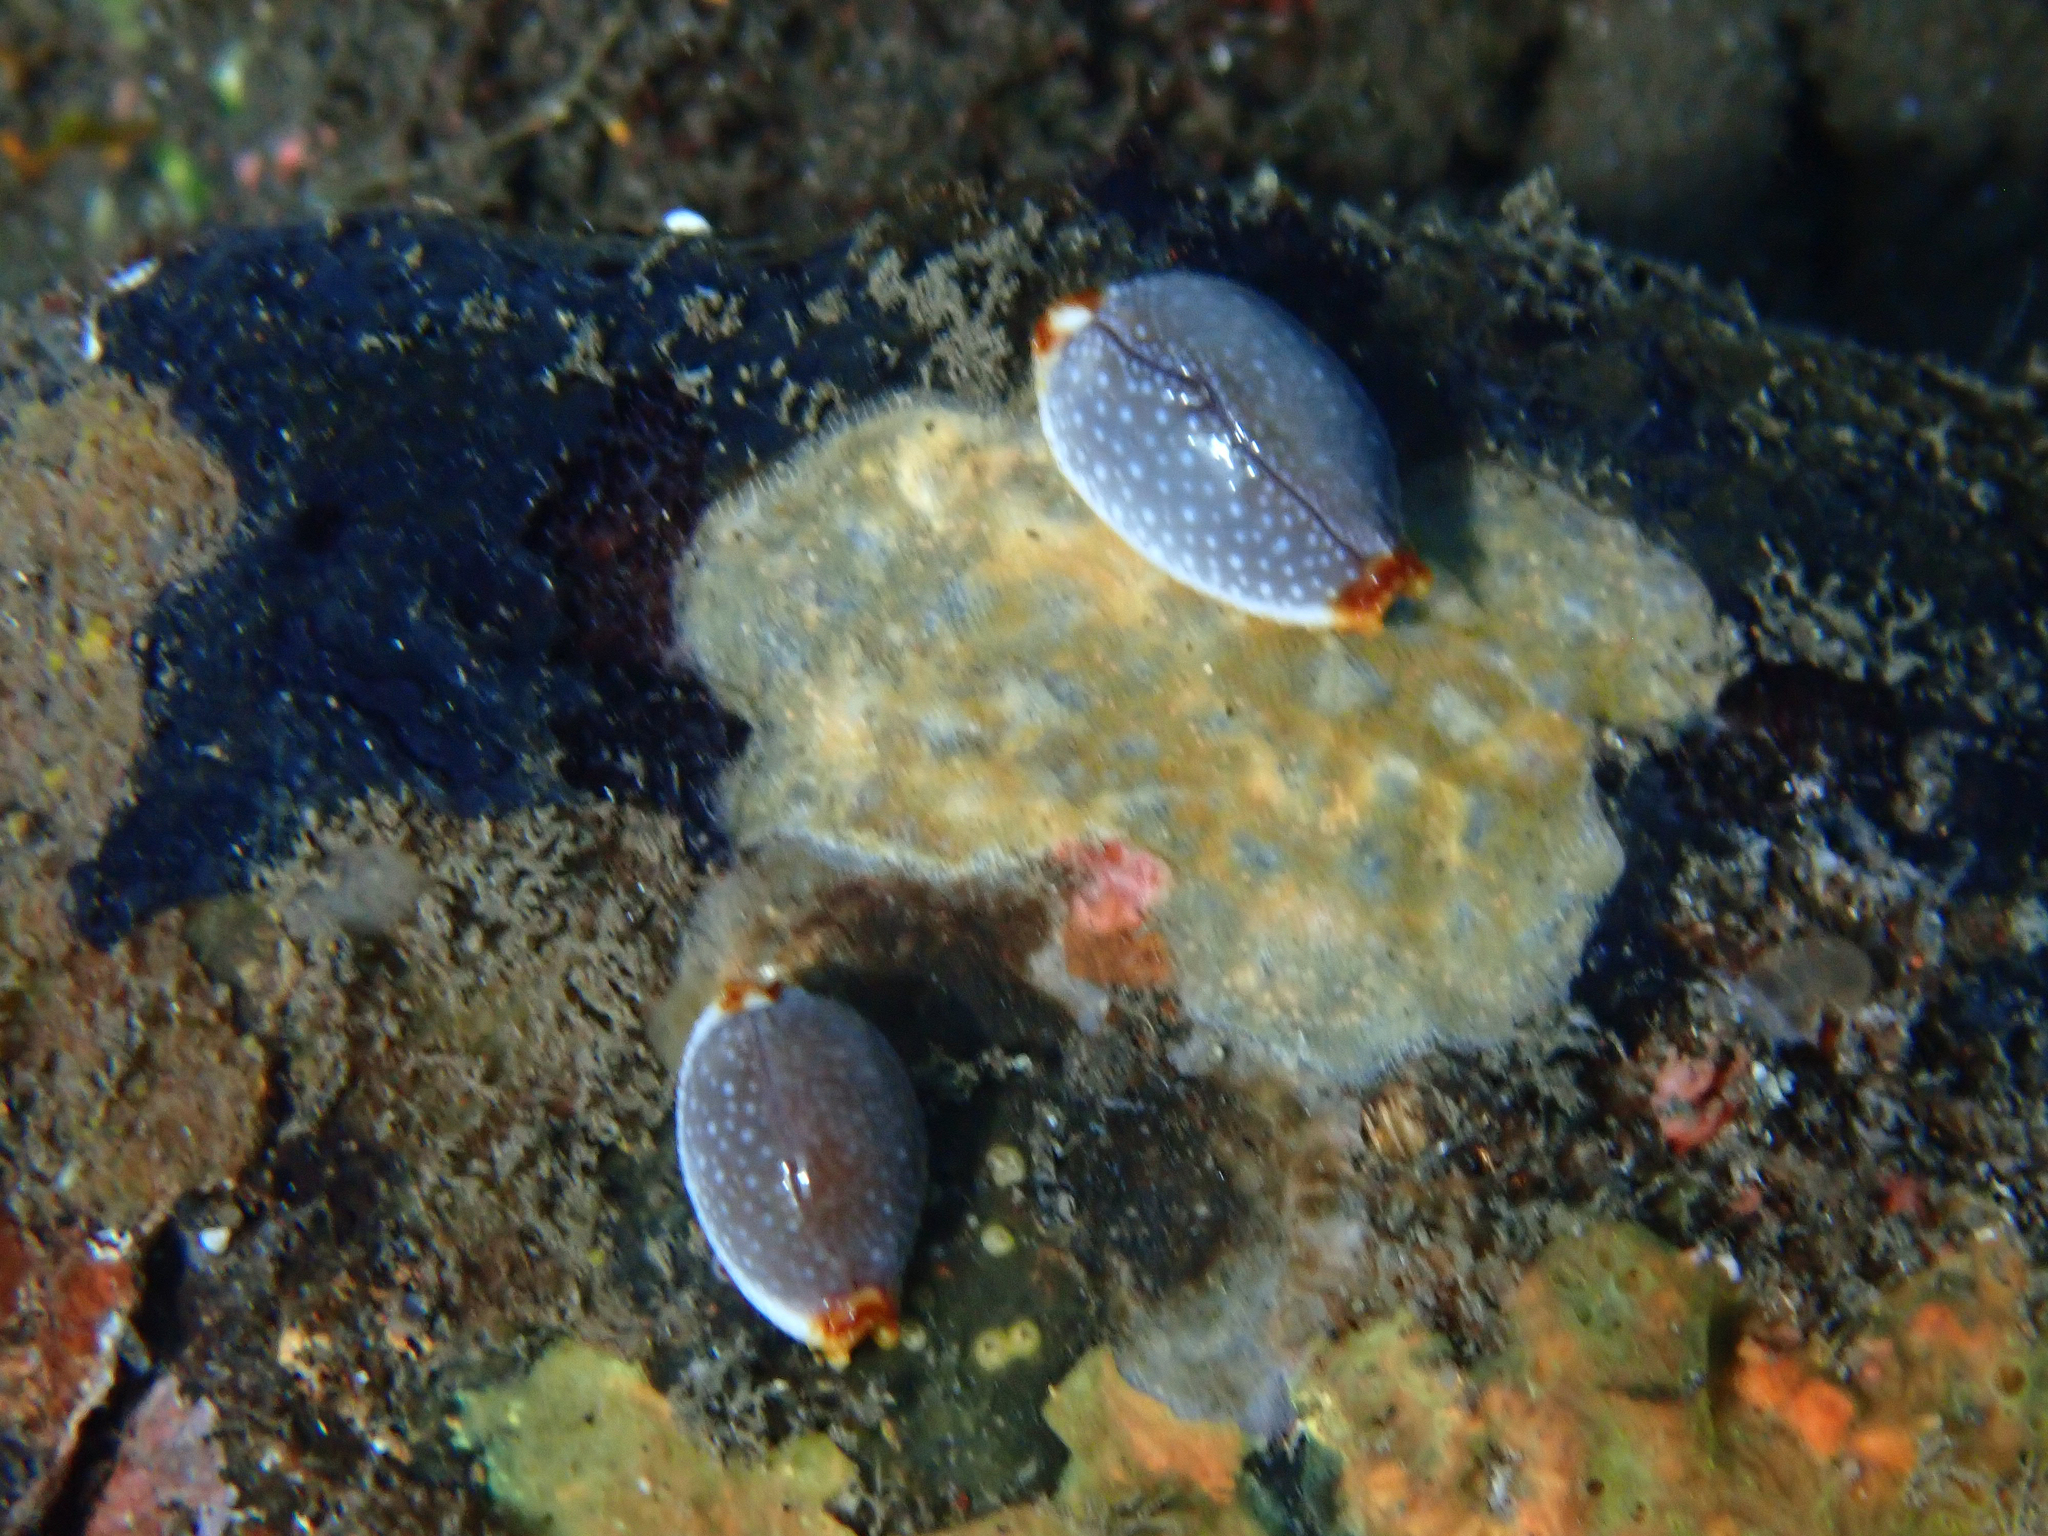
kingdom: Animalia
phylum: Mollusca
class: Gastropoda
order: Littorinimorpha
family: Cypraeidae
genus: Staphylaea
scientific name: Staphylaea staphylaea
